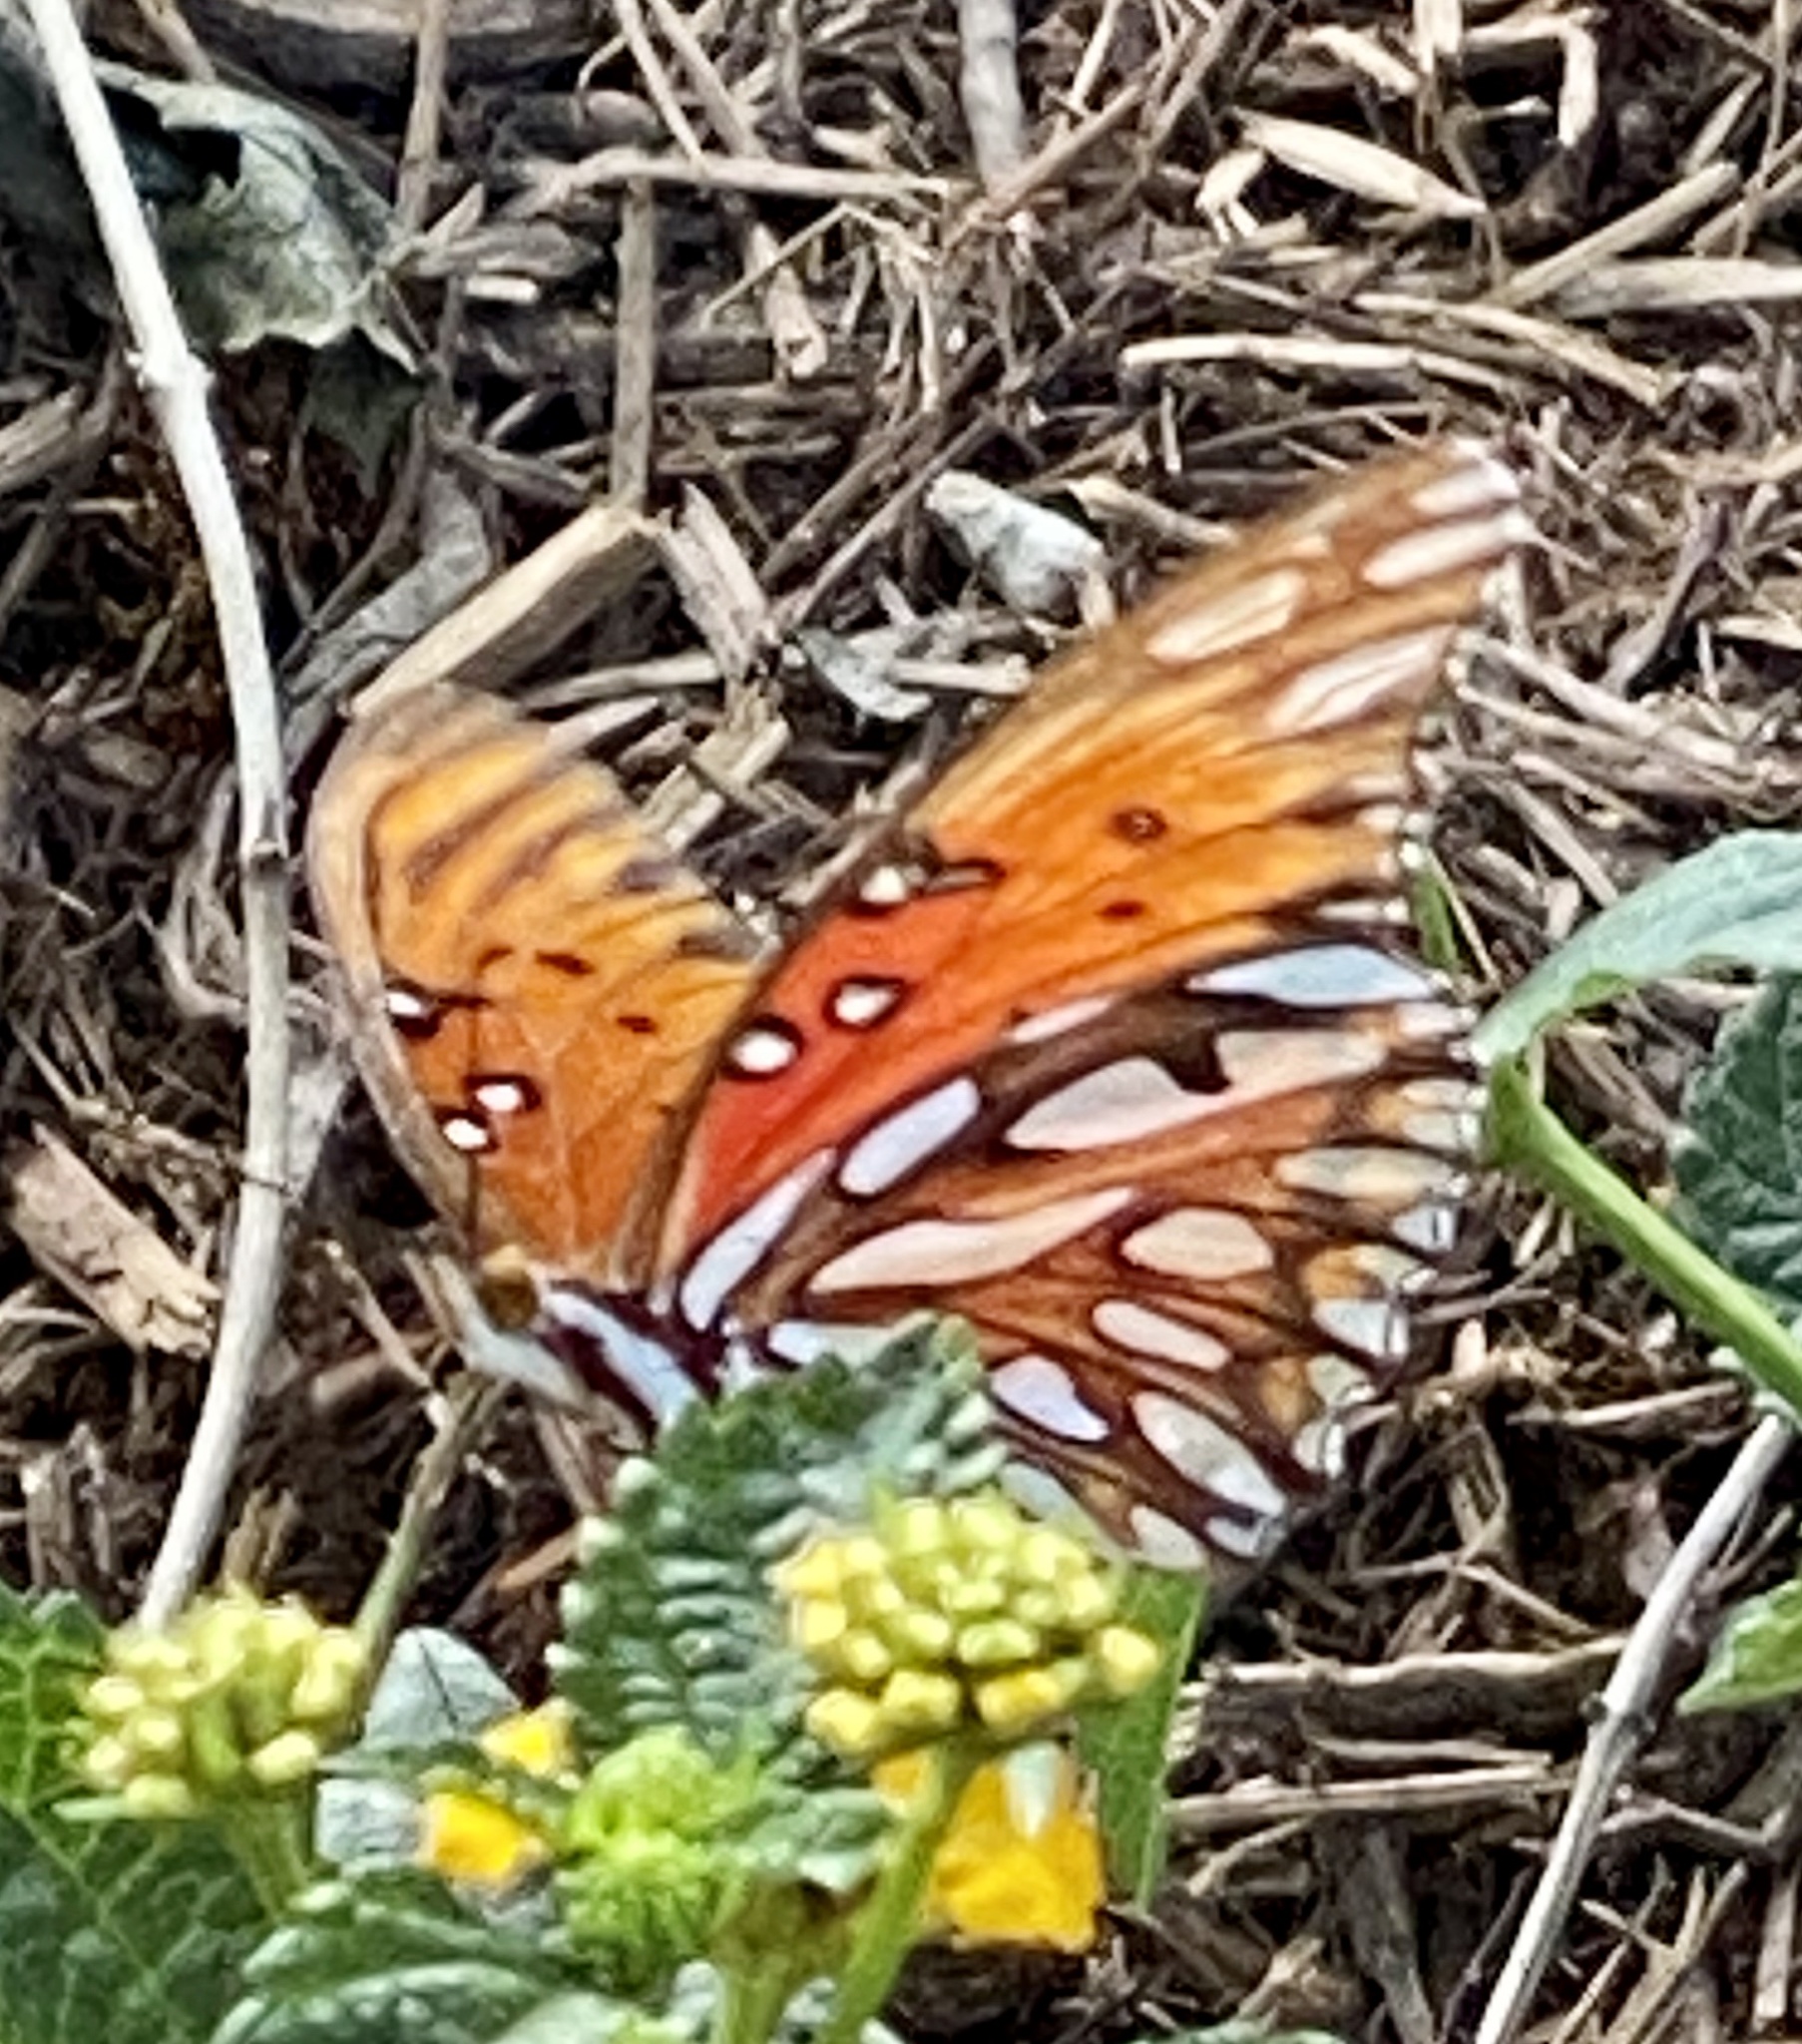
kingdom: Animalia
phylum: Arthropoda
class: Insecta
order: Lepidoptera
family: Nymphalidae
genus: Dione
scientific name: Dione vanillae
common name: Gulf fritillary
